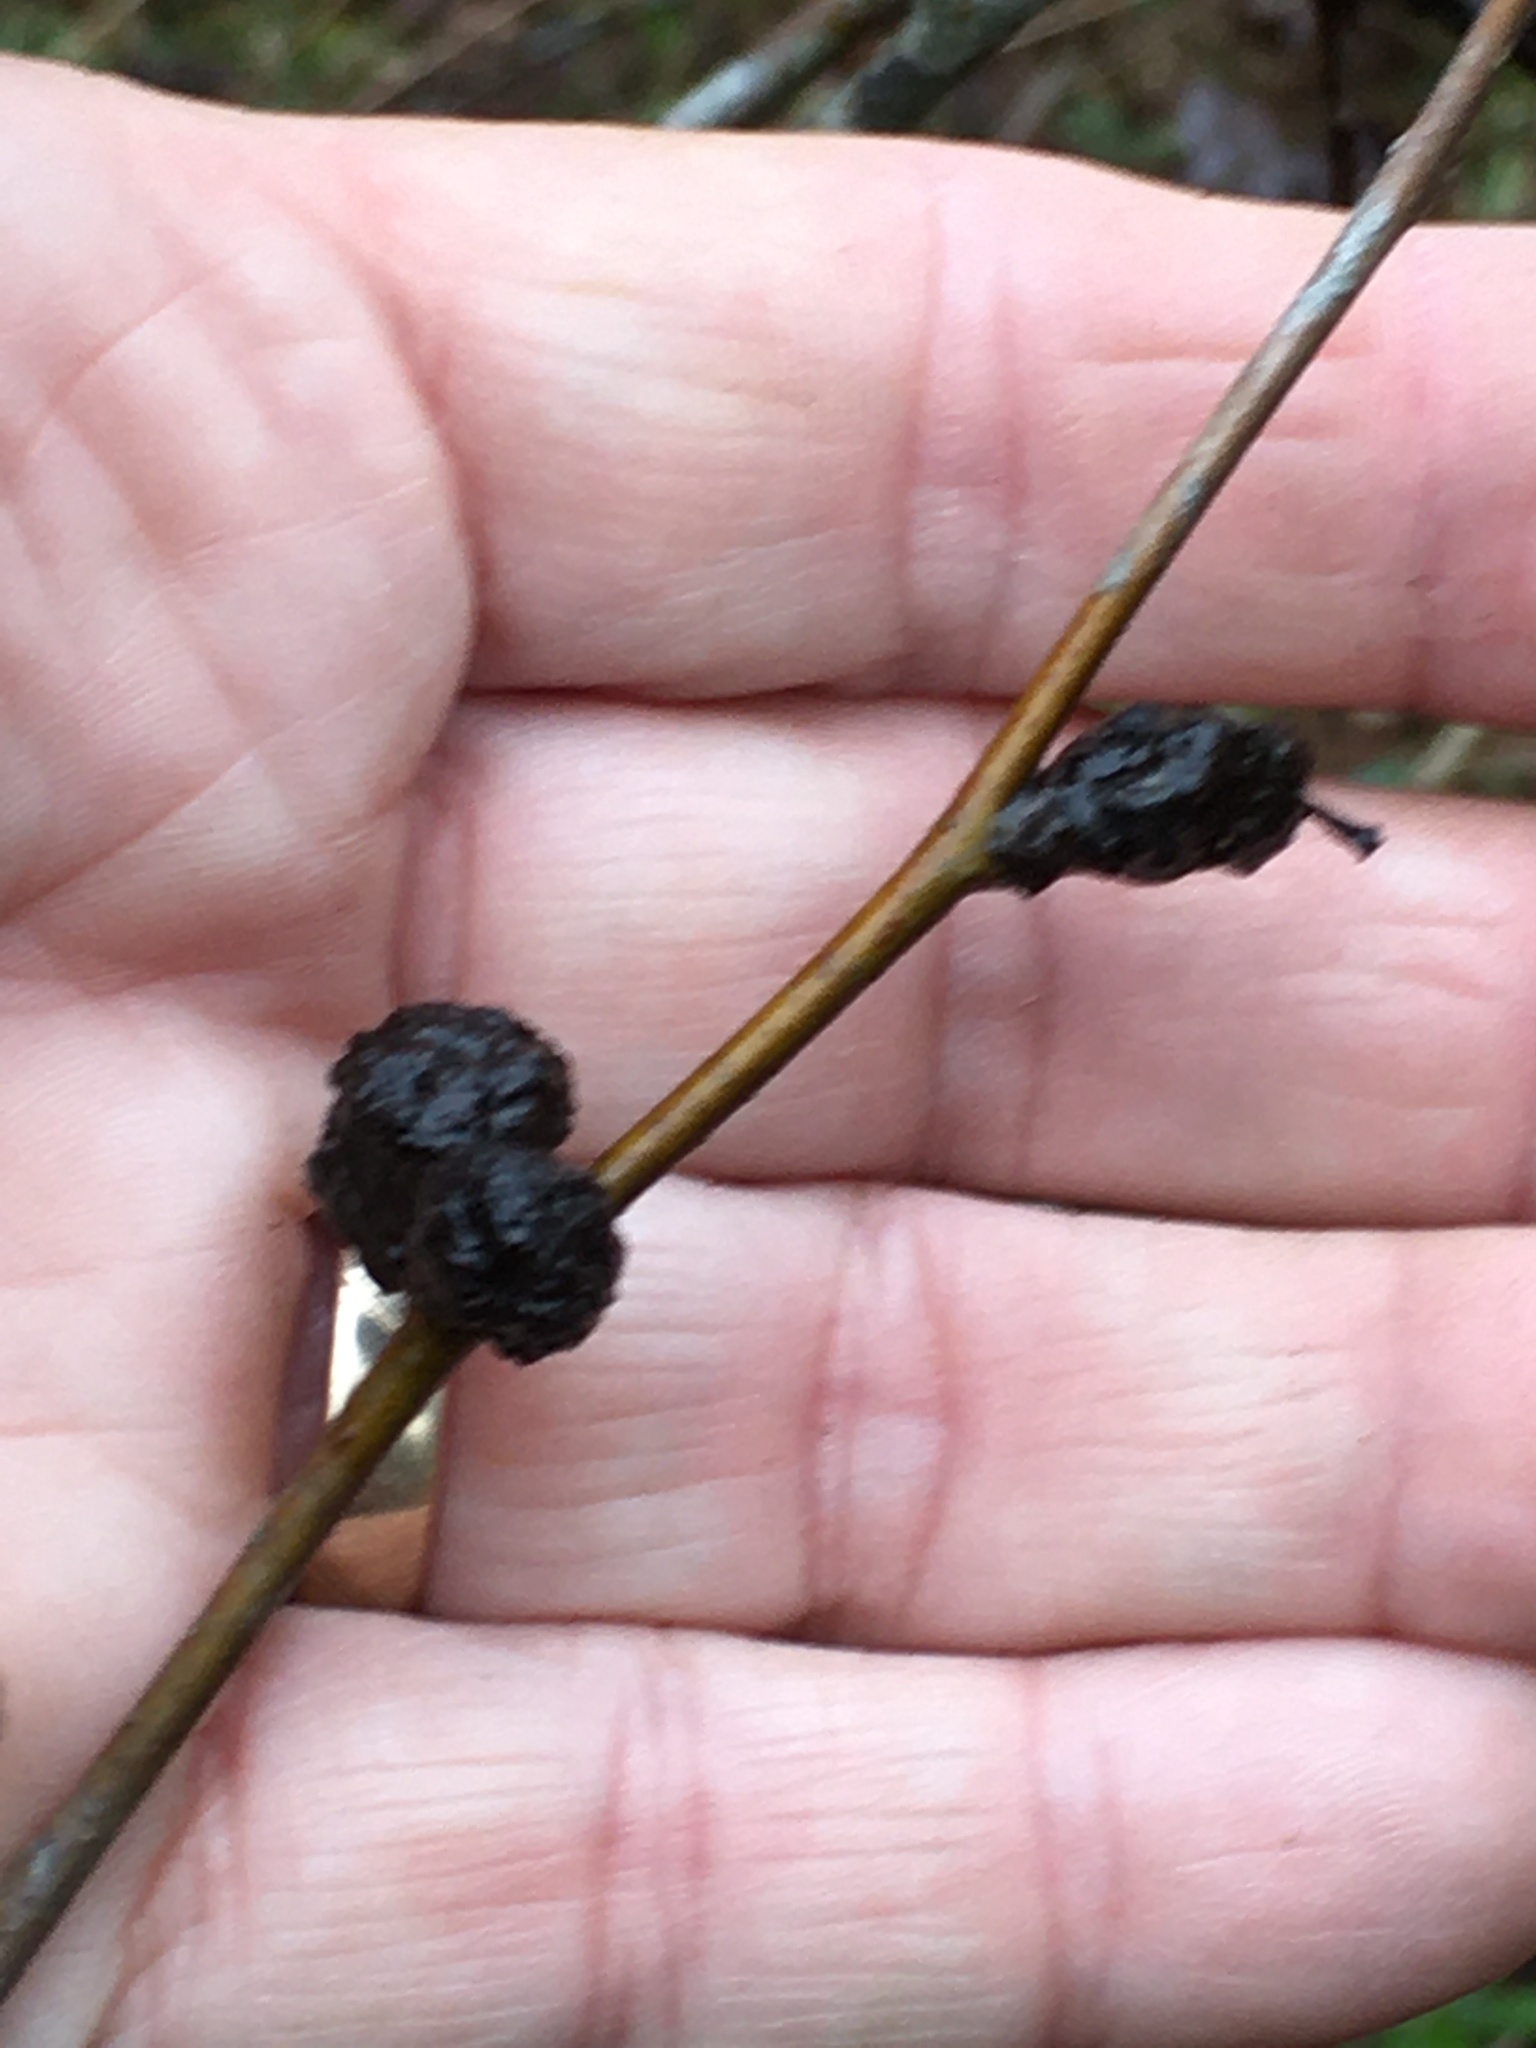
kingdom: Fungi
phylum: Basidiomycota
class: Pucciniomycetes
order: Pucciniales
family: Gymnosporangiaceae
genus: Gymnosporangium
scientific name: Gymnosporangium clavipes
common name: Quince rust
